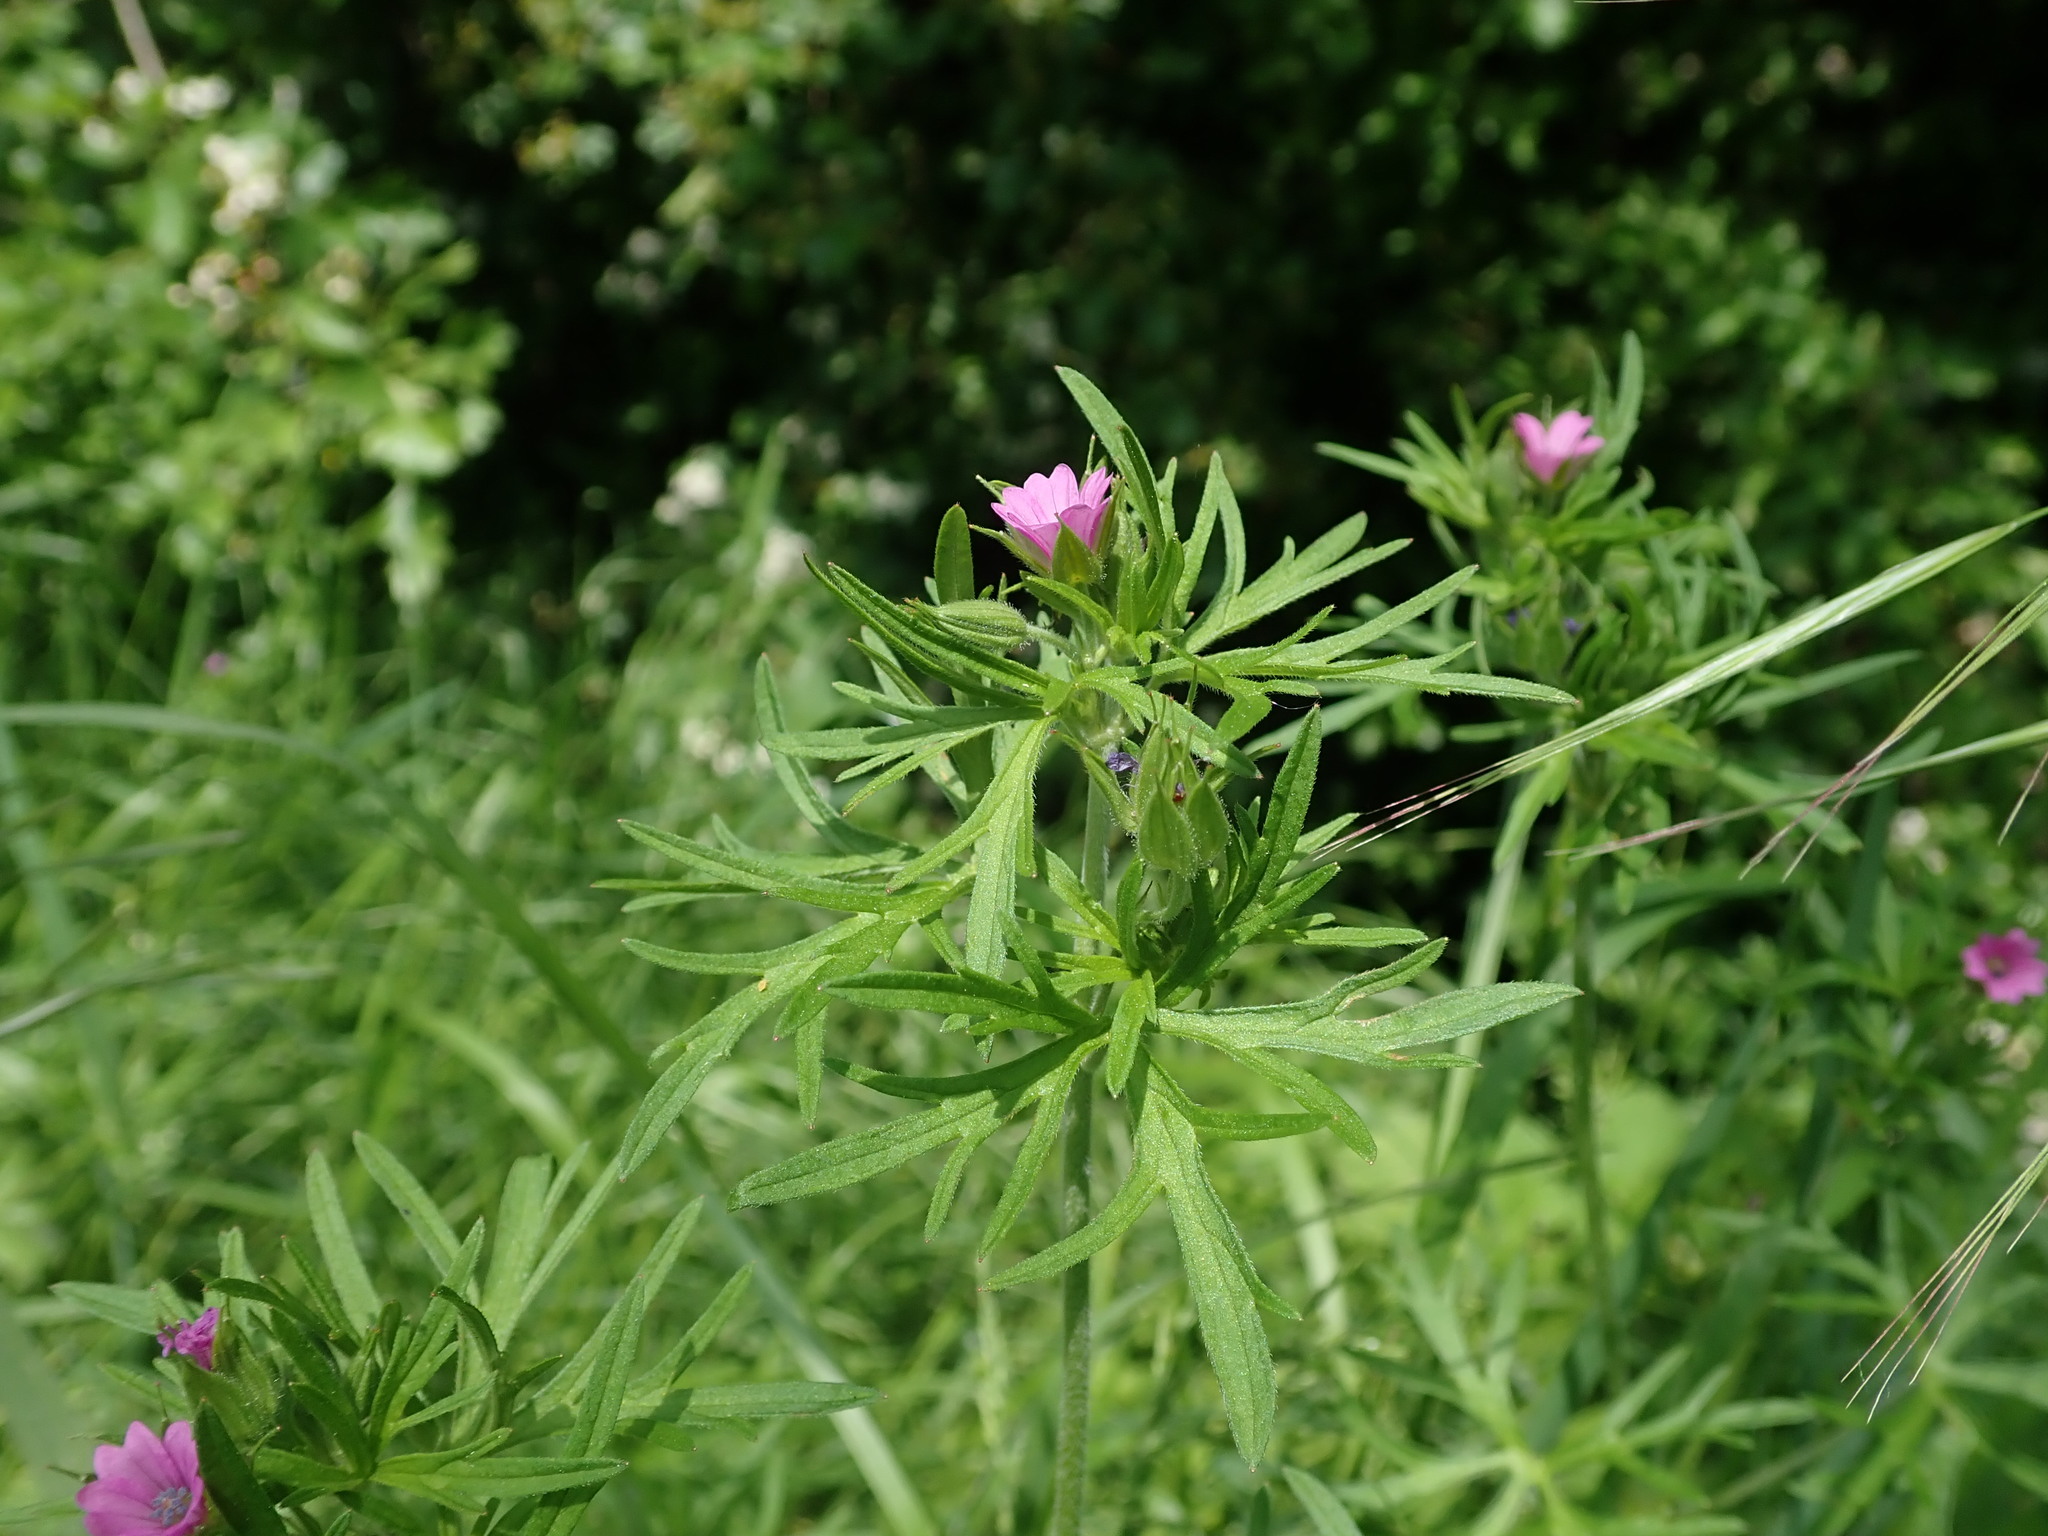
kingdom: Plantae
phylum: Tracheophyta
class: Magnoliopsida
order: Geraniales
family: Geraniaceae
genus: Geranium
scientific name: Geranium dissectum
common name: Cut-leaved crane's-bill
